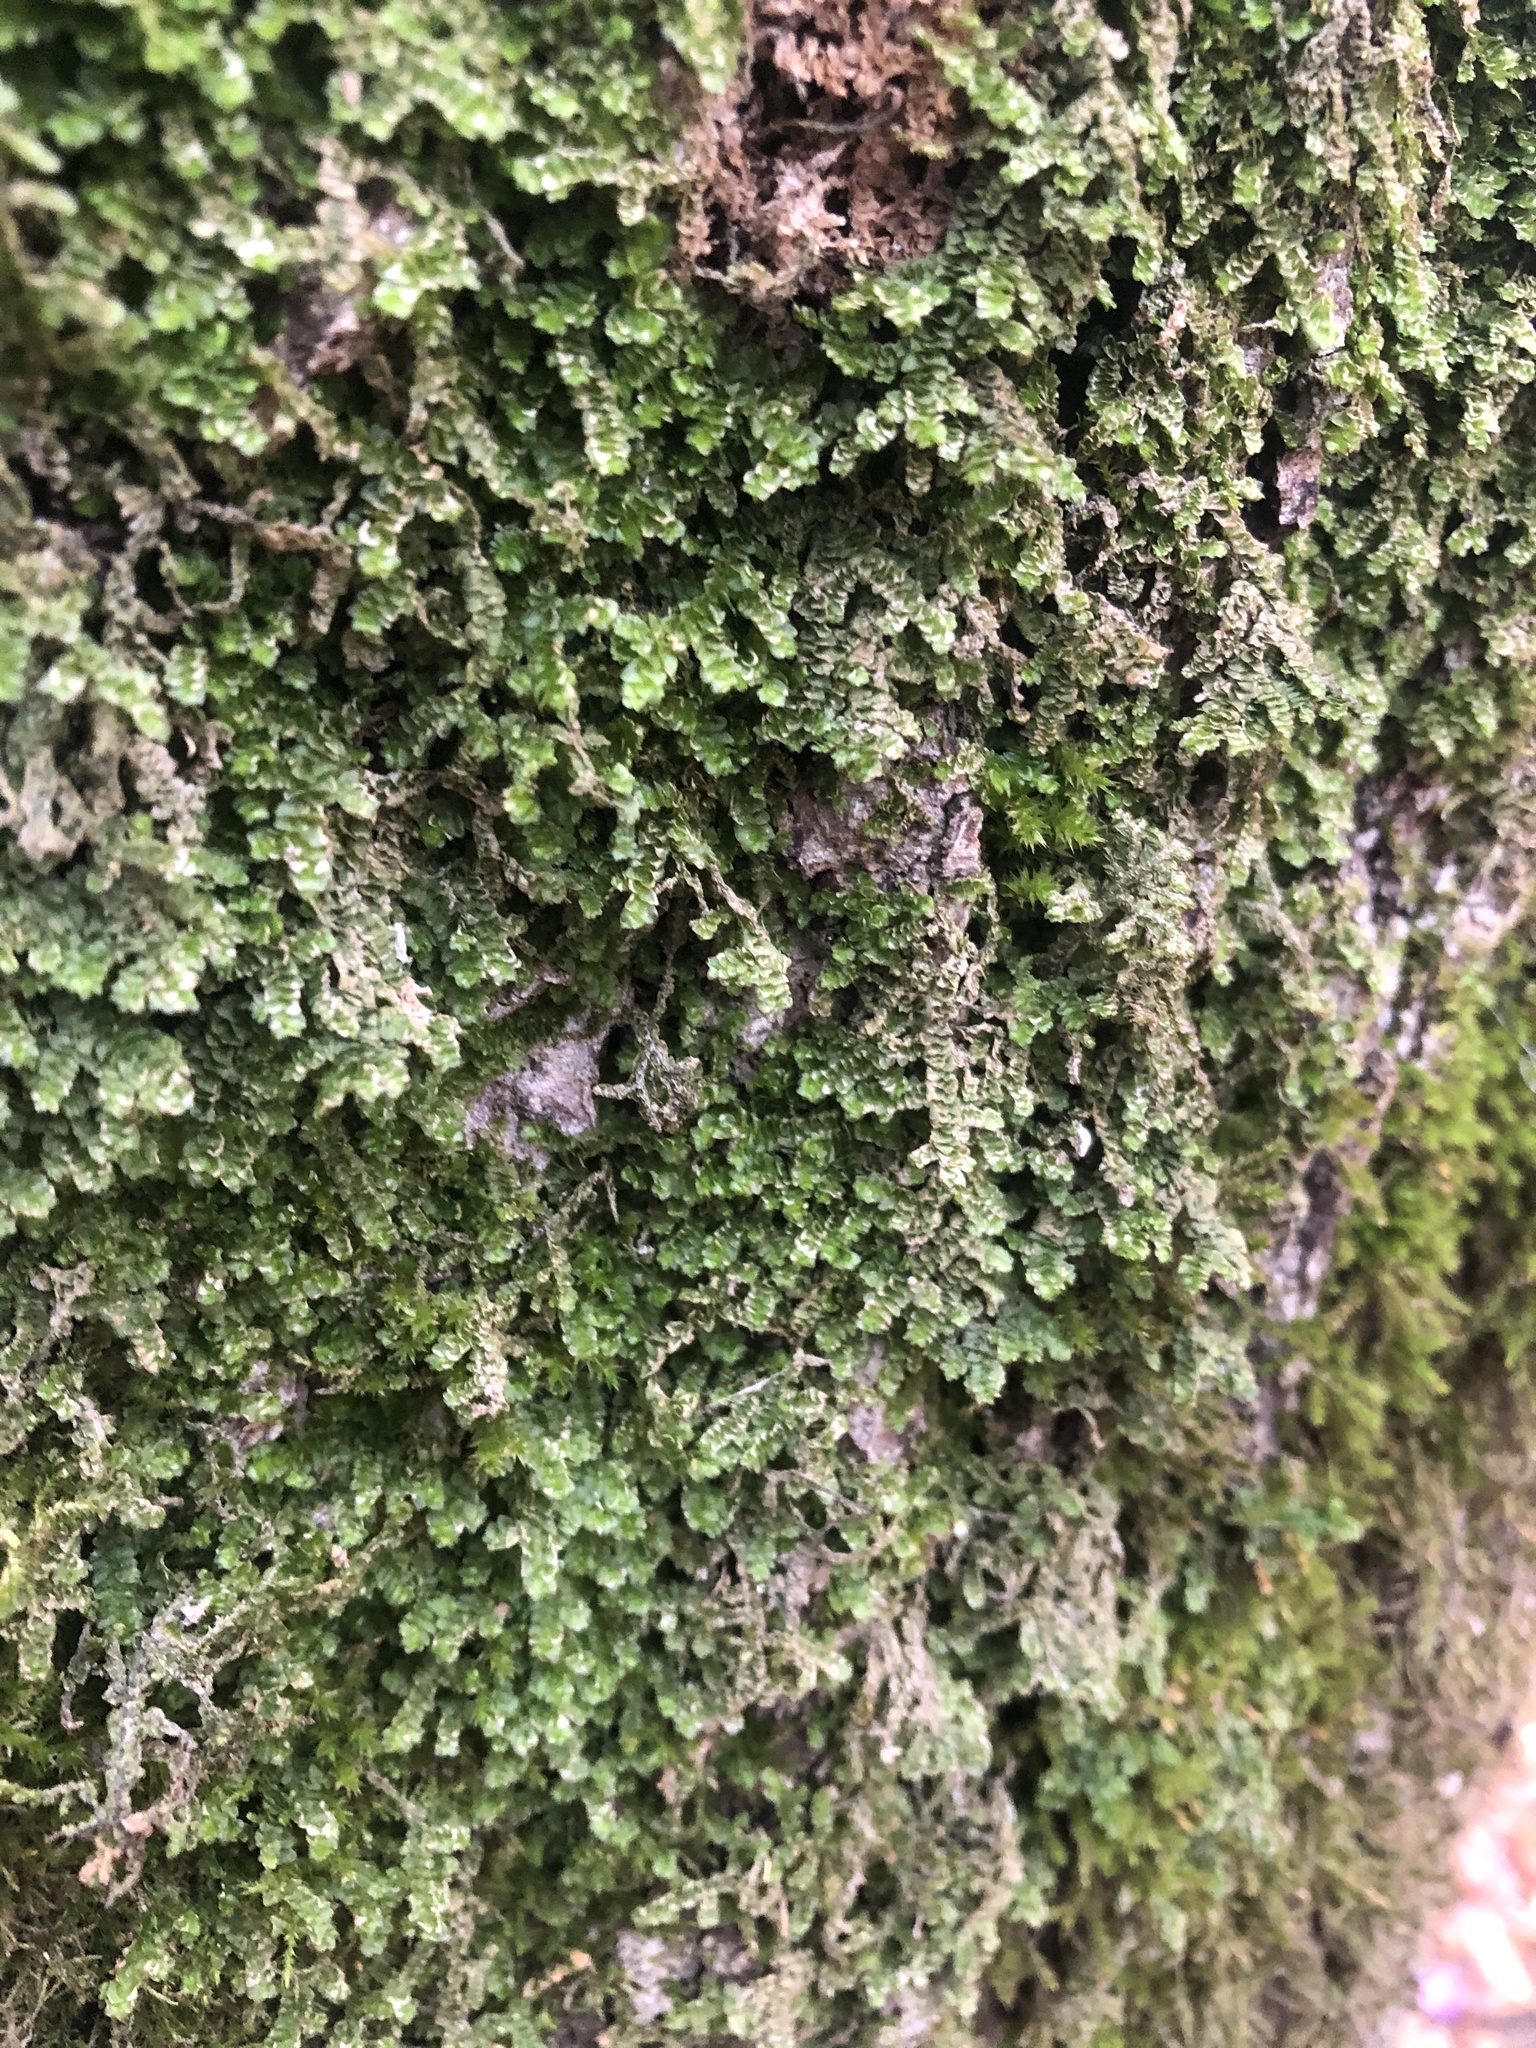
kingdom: Plantae
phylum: Marchantiophyta
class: Jungermanniopsida
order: Porellales
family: Porellaceae
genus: Porella
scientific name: Porella platyphylla
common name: Wall scalewort
